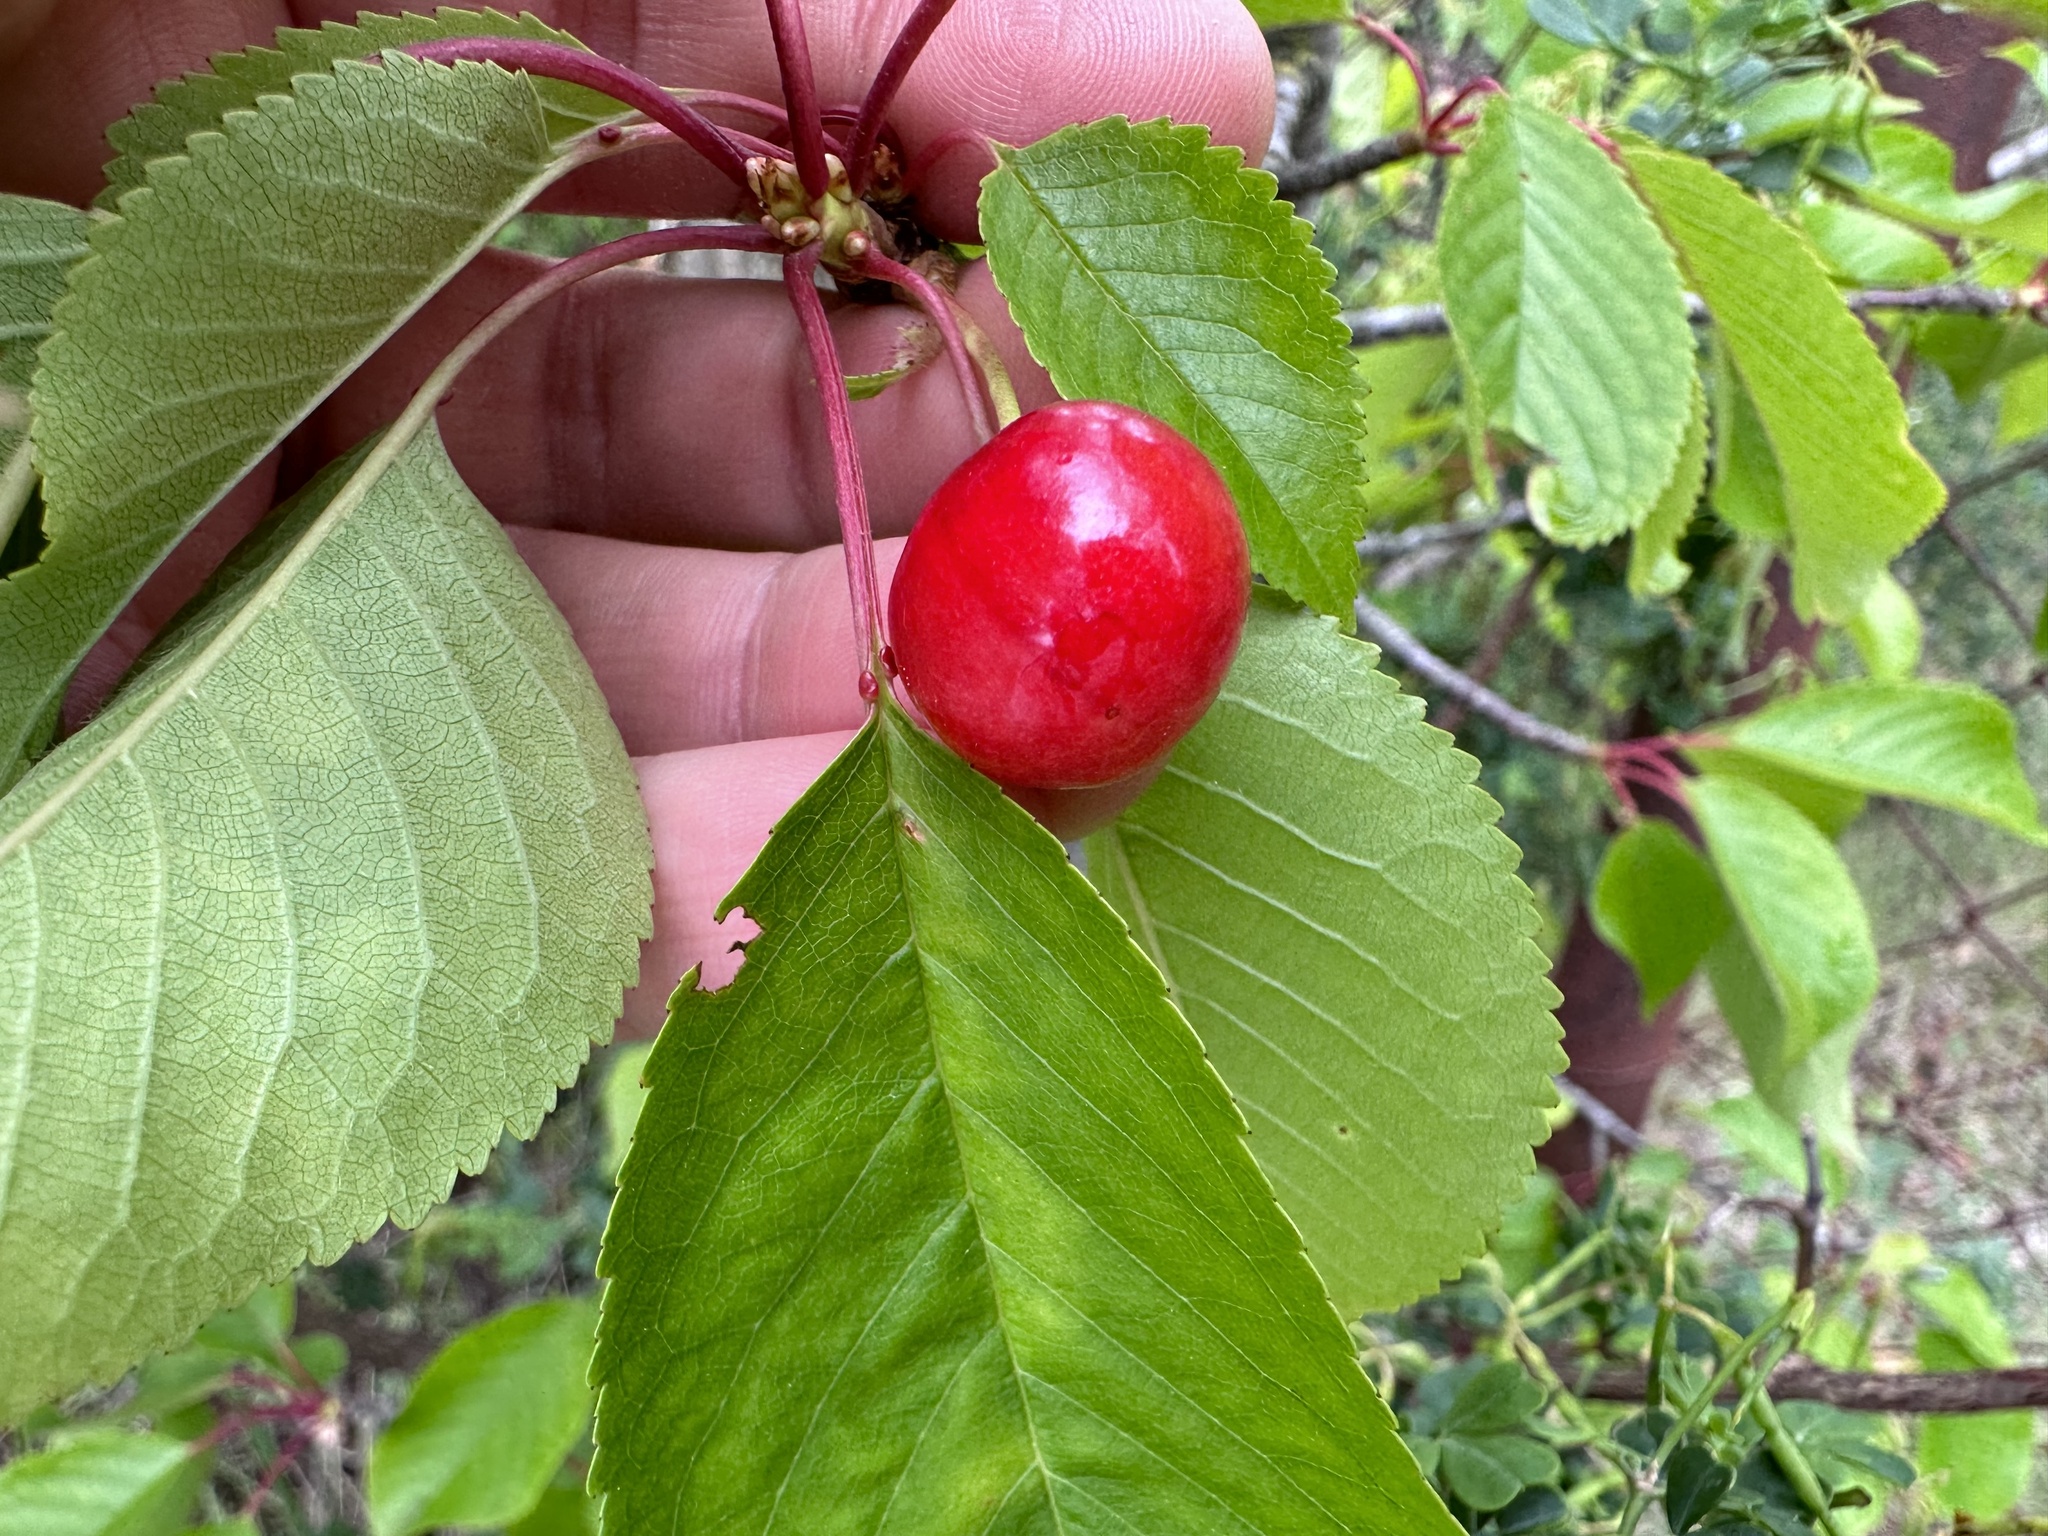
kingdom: Plantae
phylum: Tracheophyta
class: Magnoliopsida
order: Rosales
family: Rosaceae
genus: Prunus
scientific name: Prunus avium
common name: Sweet cherry
